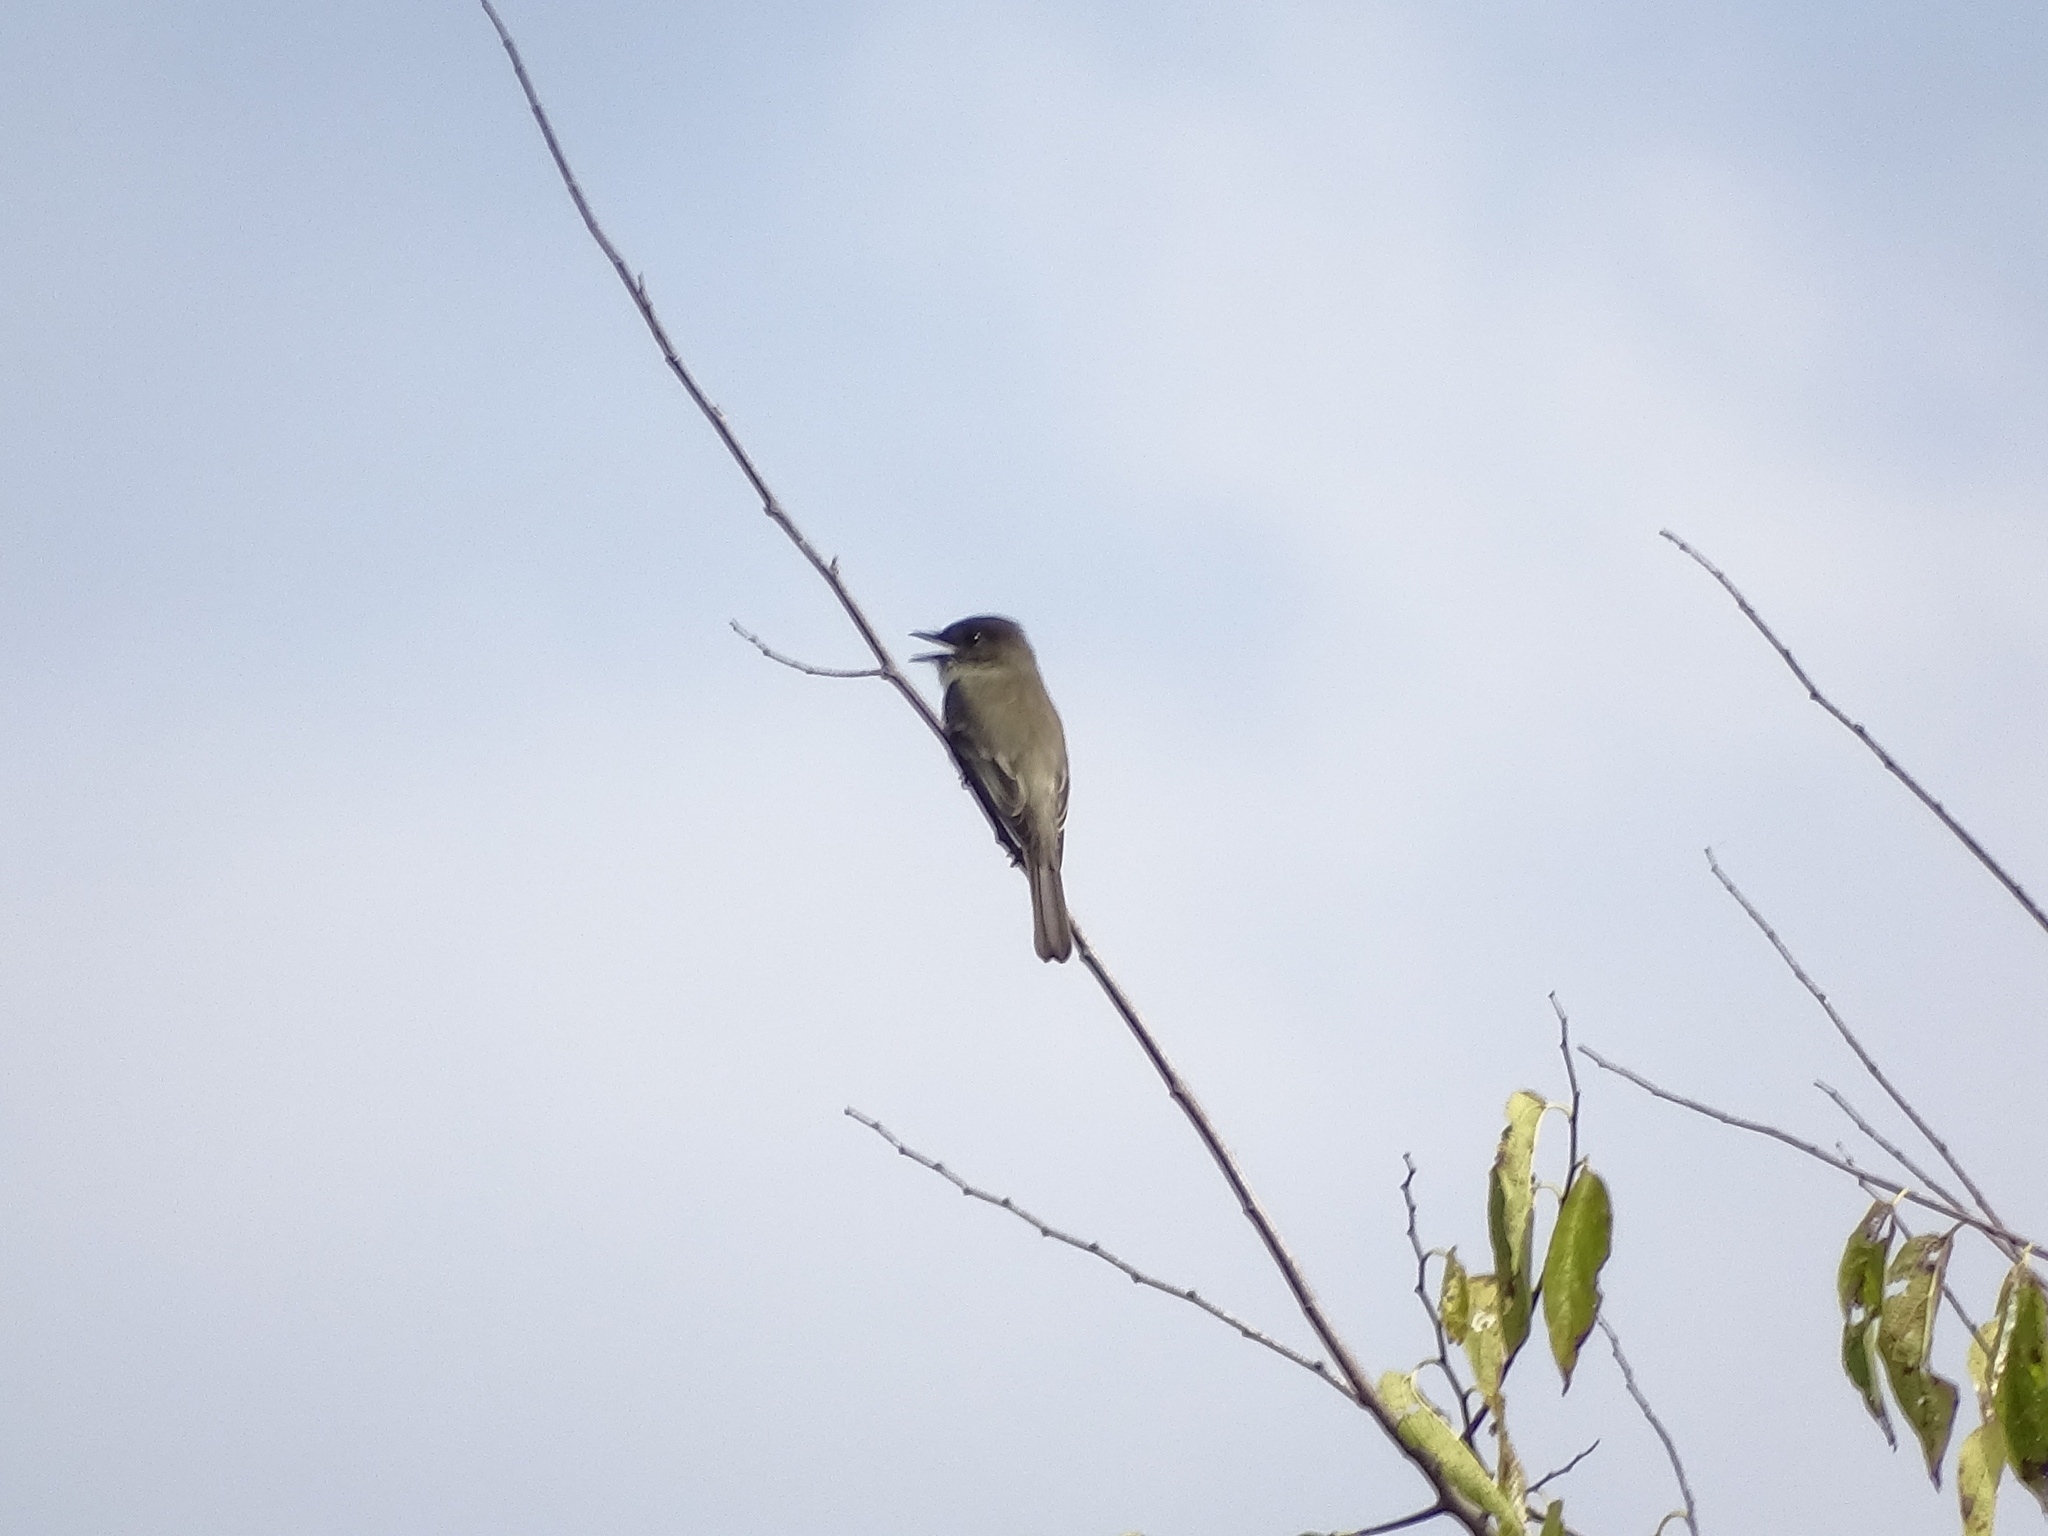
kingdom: Animalia
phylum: Chordata
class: Aves
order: Passeriformes
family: Tyrannidae
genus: Sayornis
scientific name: Sayornis phoebe
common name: Eastern phoebe
